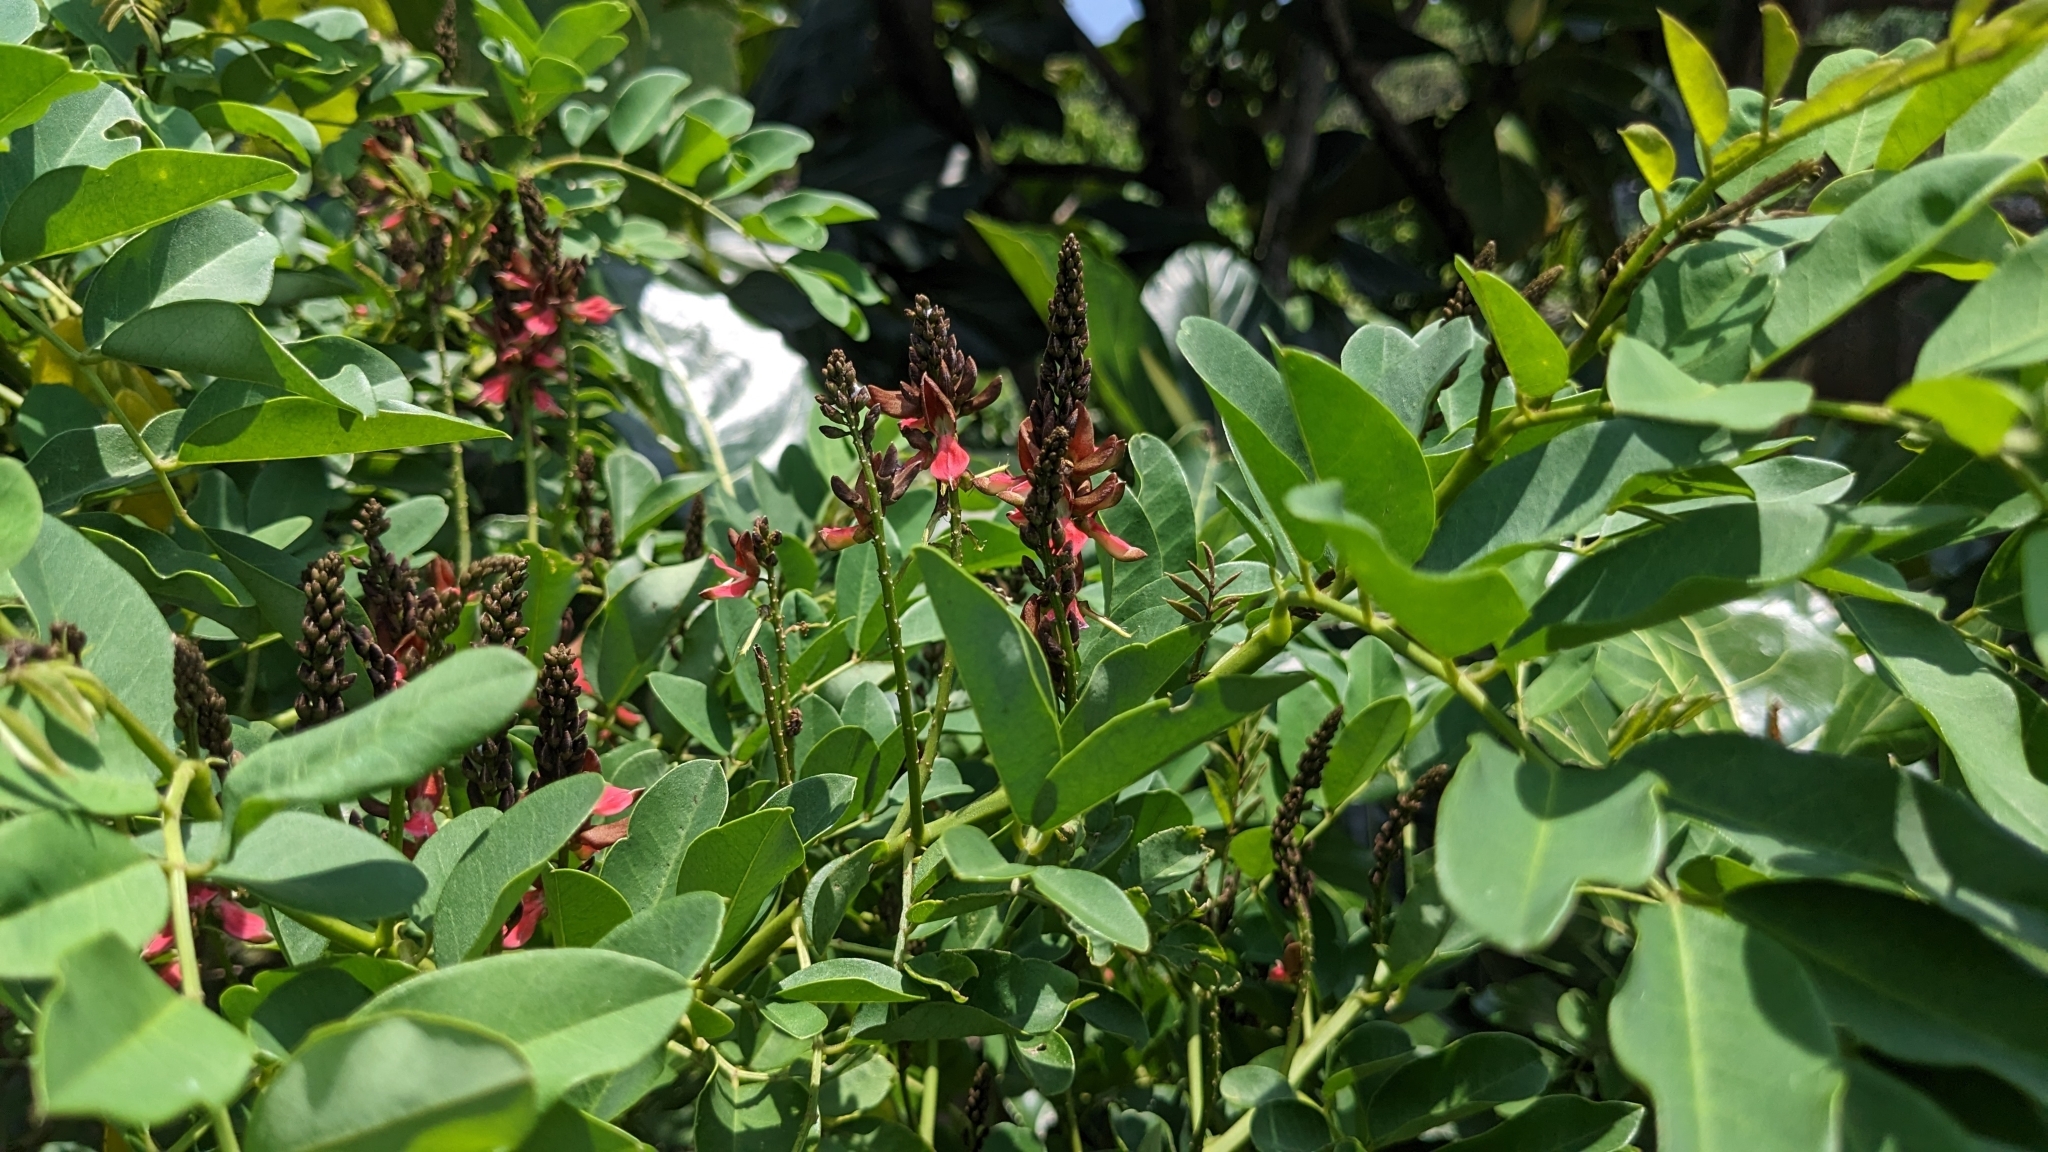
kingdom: Plantae
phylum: Tracheophyta
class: Magnoliopsida
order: Fabales
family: Fabaceae
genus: Indigofera
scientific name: Indigofera zollingeriana
